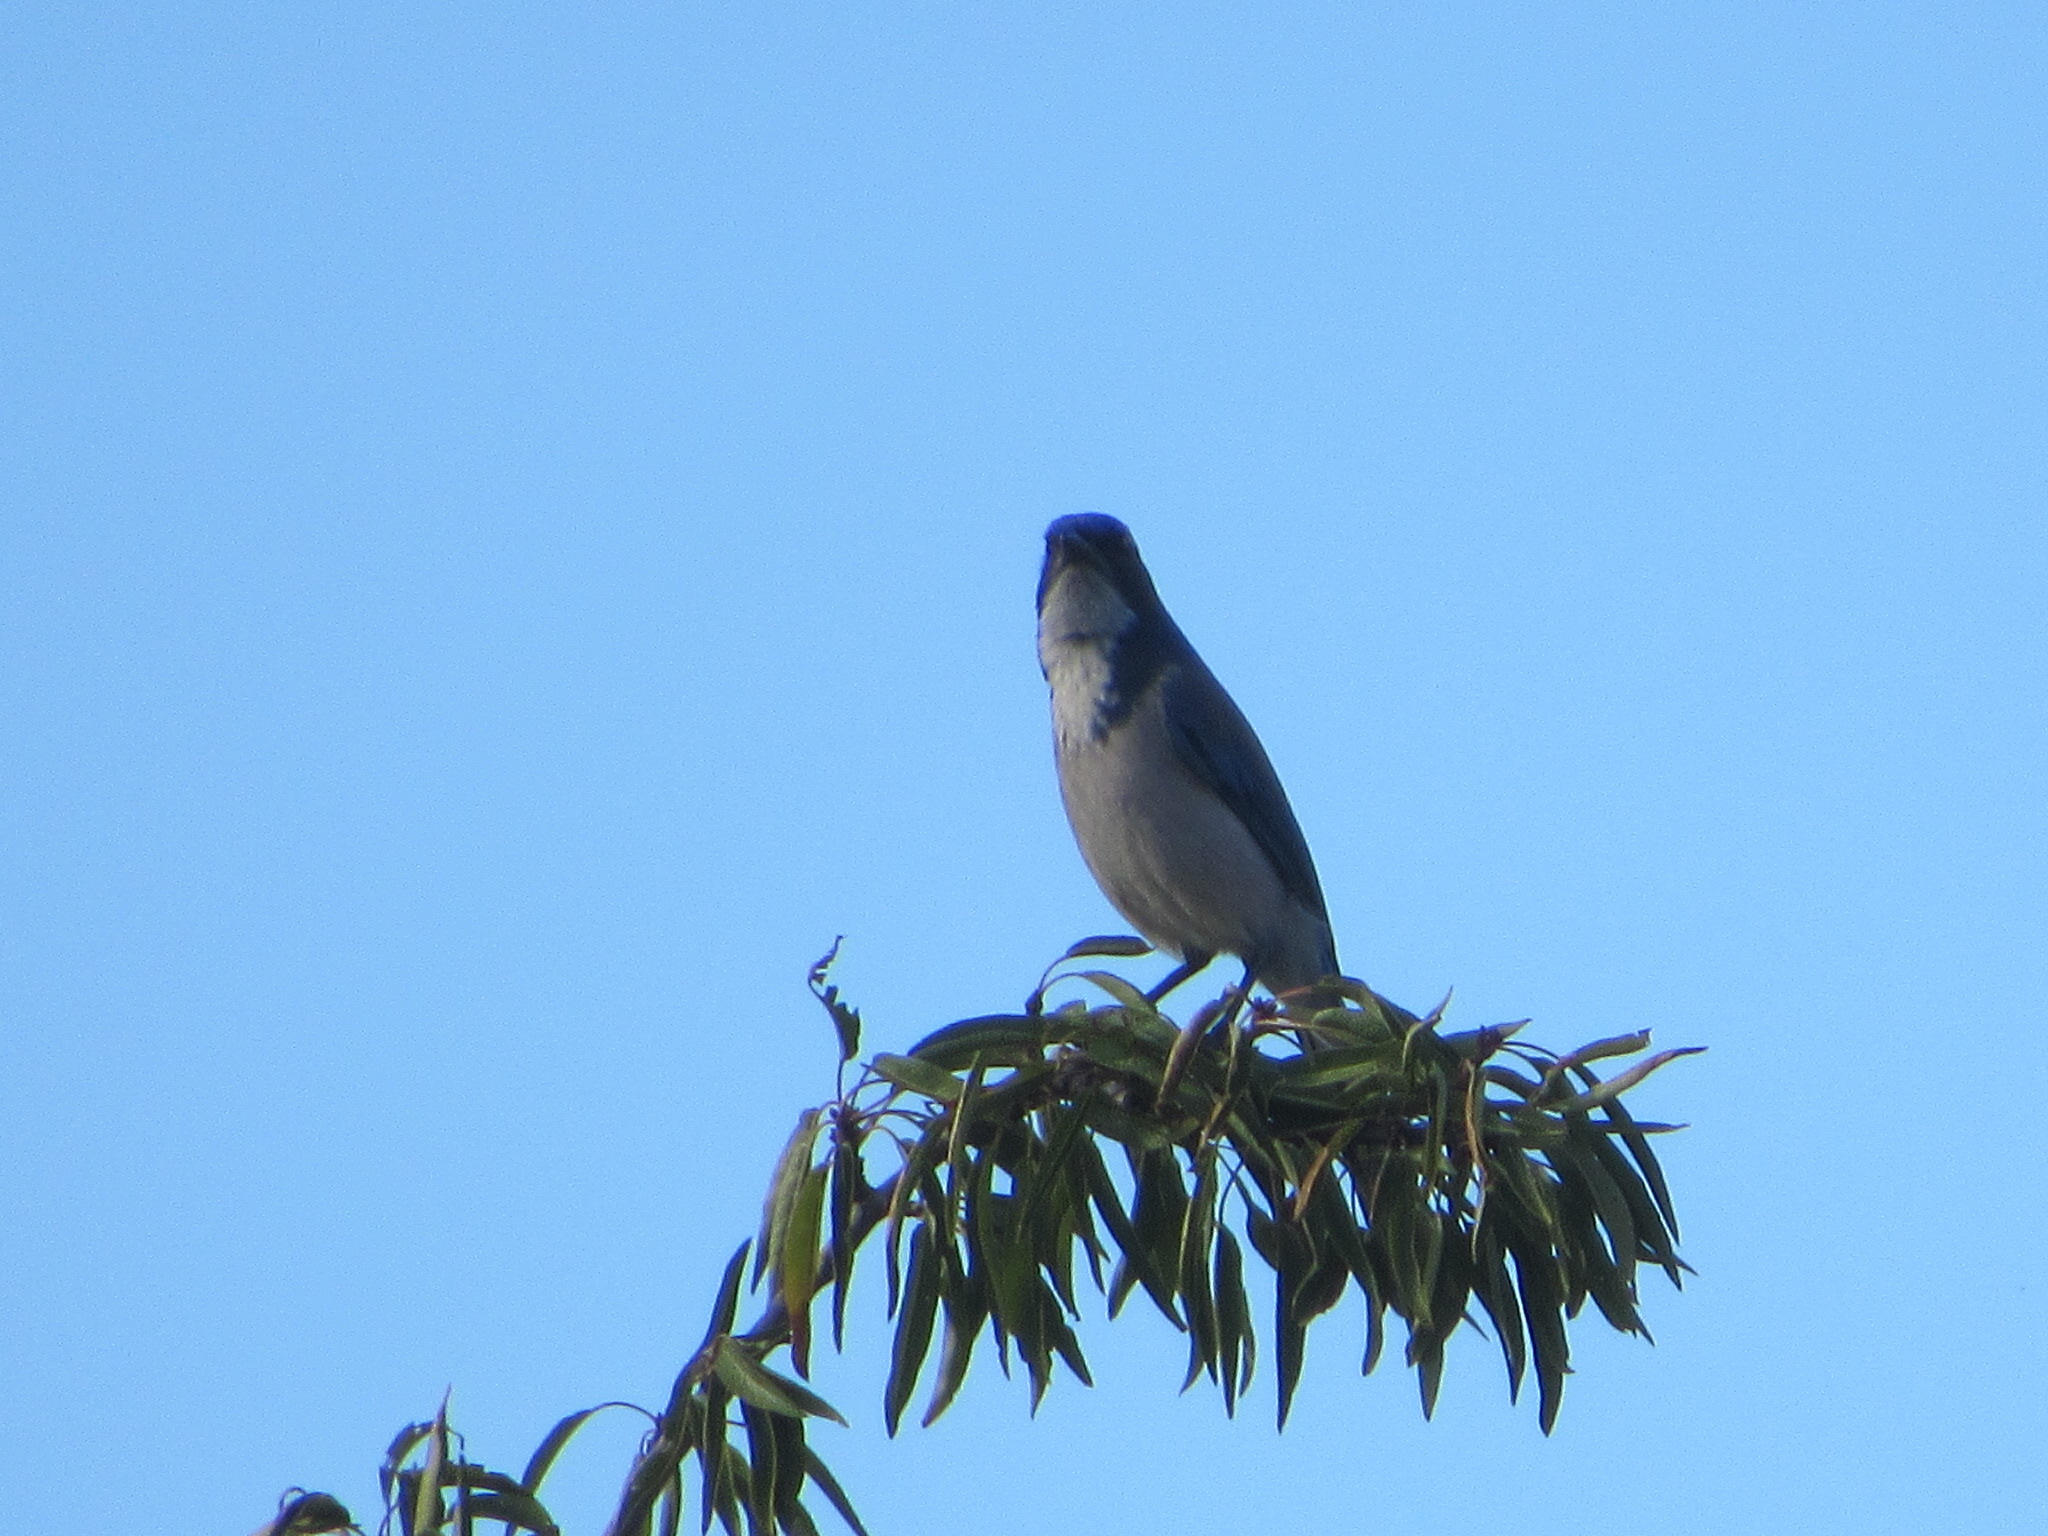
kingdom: Animalia
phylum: Chordata
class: Aves
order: Passeriformes
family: Corvidae
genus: Aphelocoma
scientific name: Aphelocoma californica
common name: California scrub-jay
